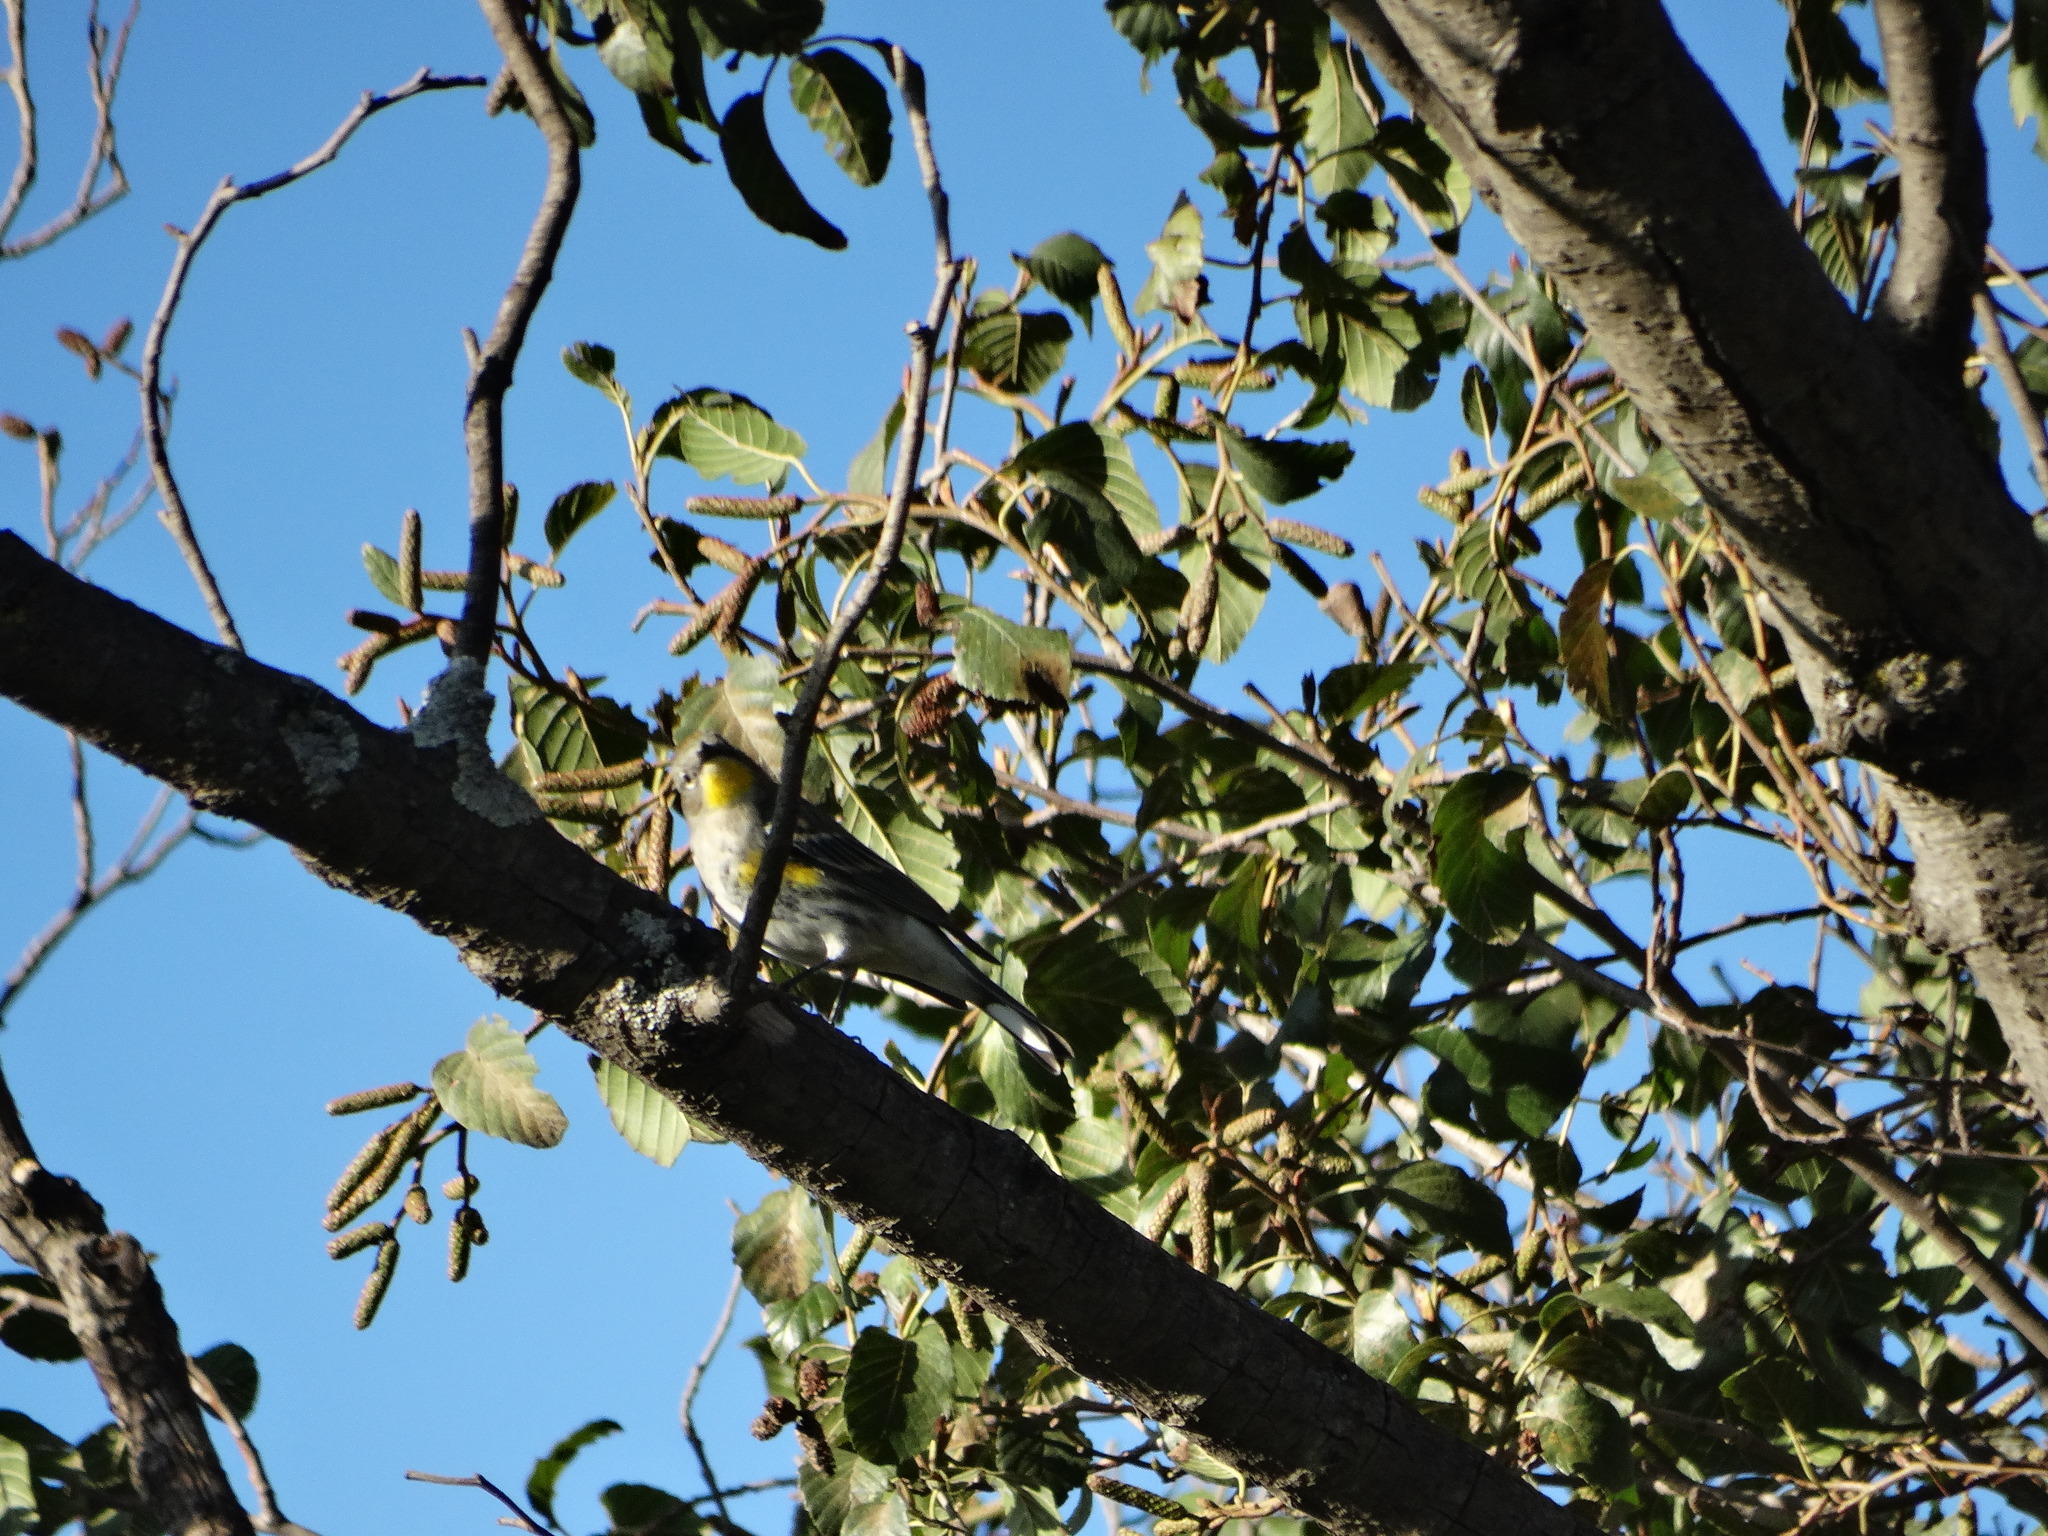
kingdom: Animalia
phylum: Chordata
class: Aves
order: Passeriformes
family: Parulidae
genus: Setophaga
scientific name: Setophaga coronata
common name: Myrtle warbler
